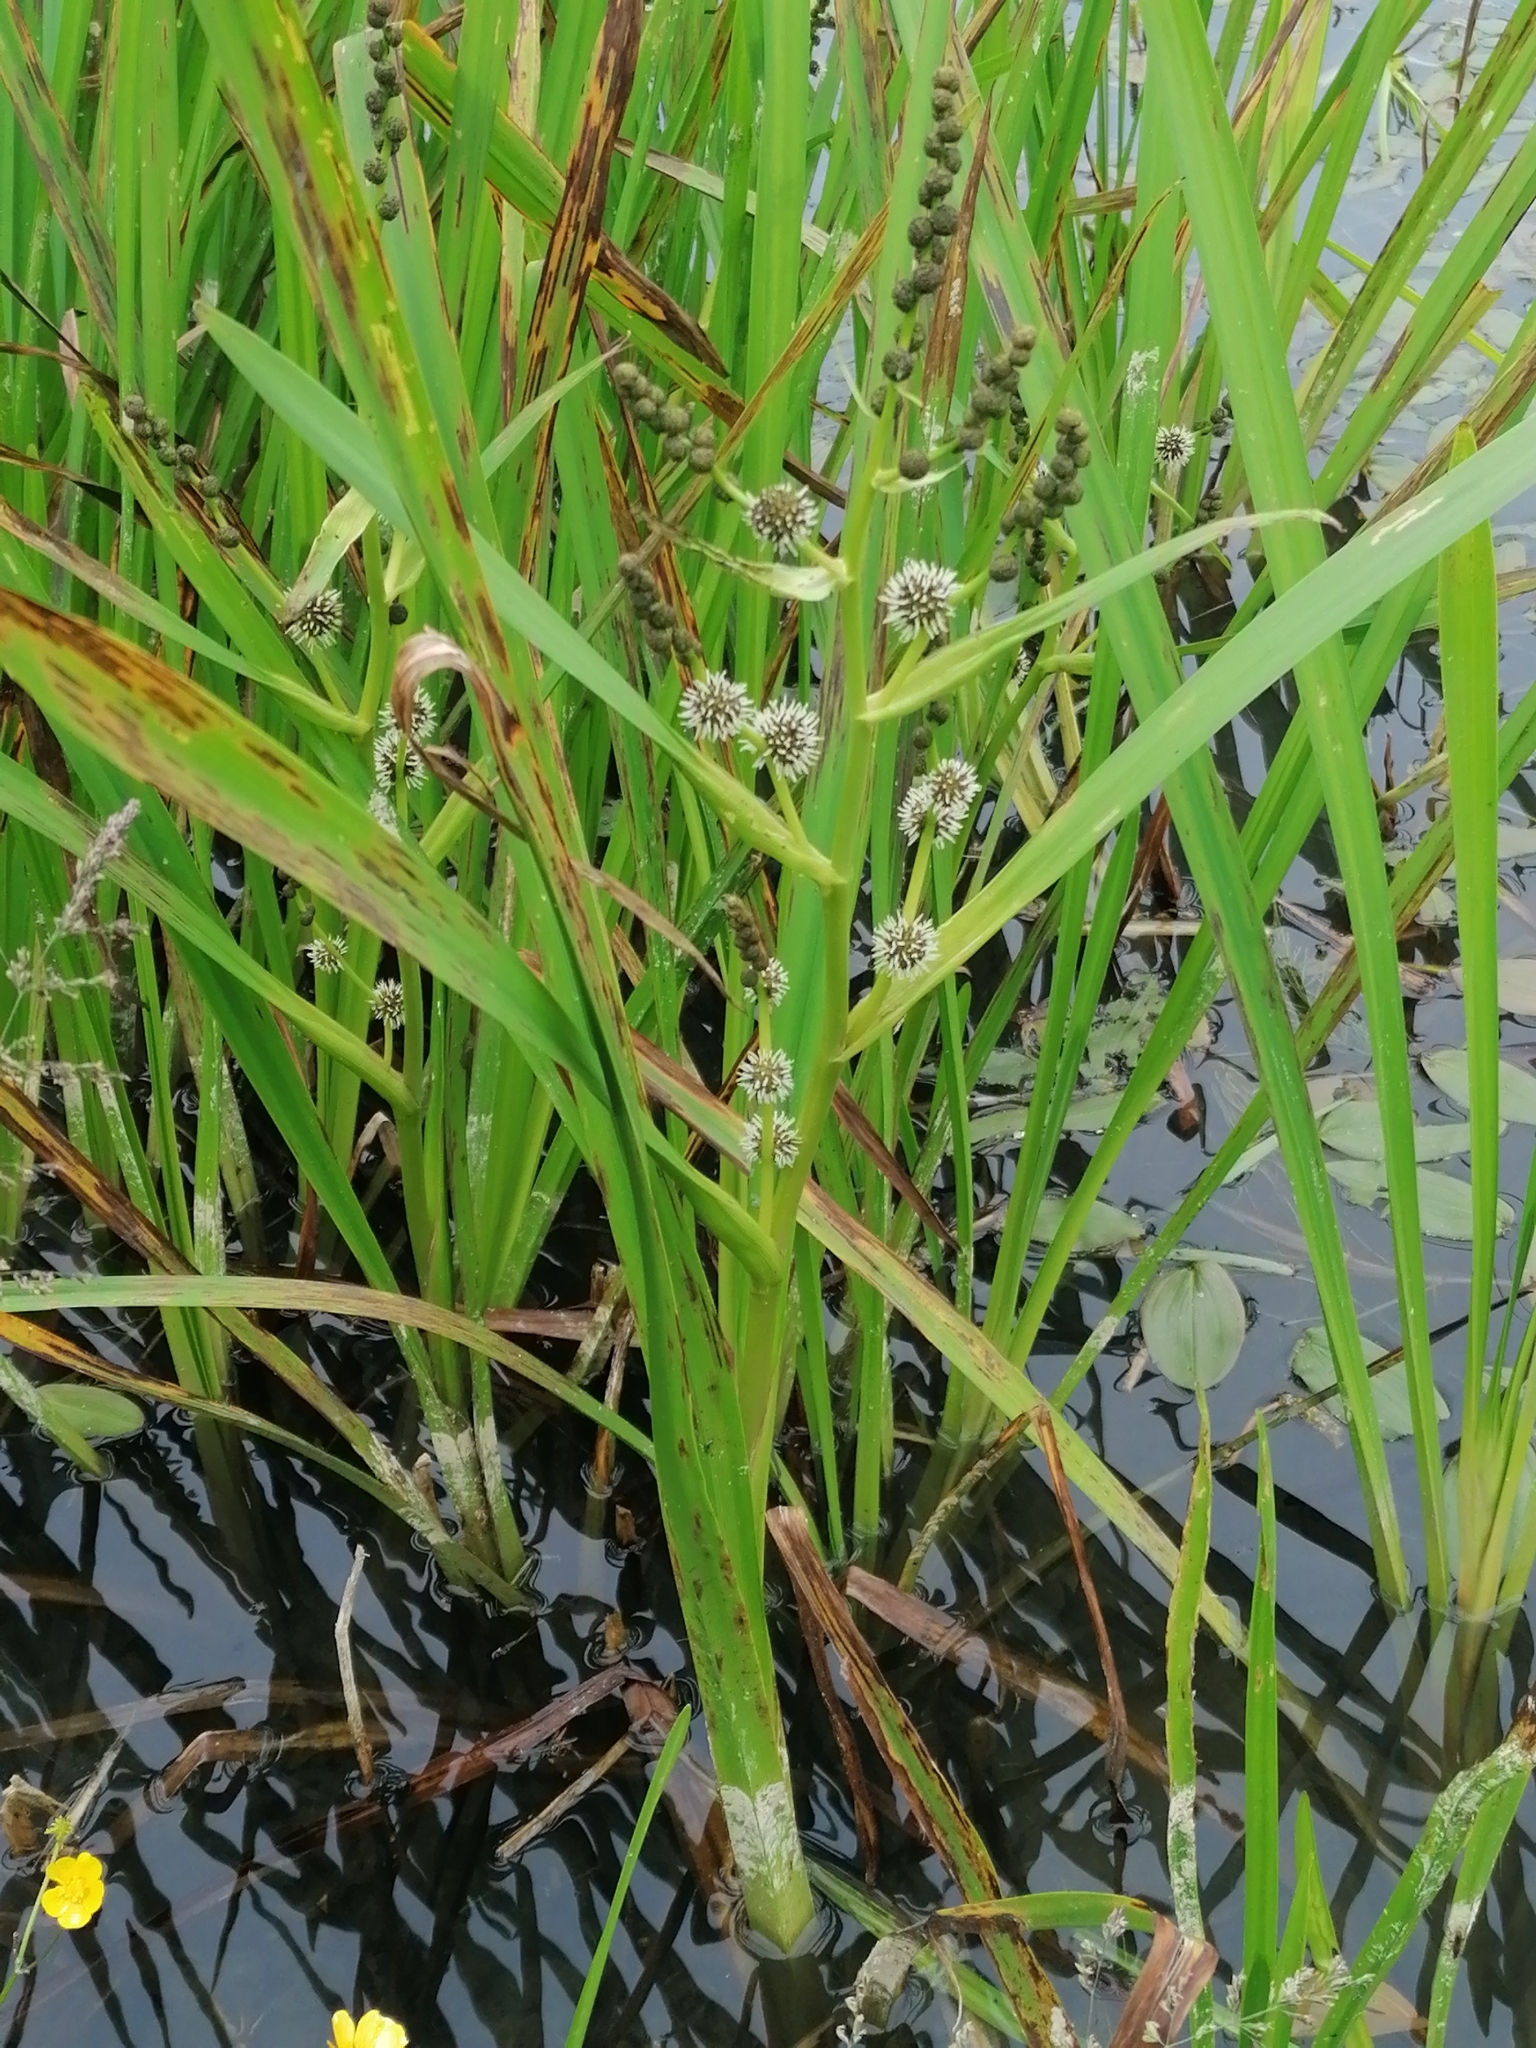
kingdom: Plantae
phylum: Tracheophyta
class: Liliopsida
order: Poales
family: Typhaceae
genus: Sparganium
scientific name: Sparganium erectum
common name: Branched bur-reed
